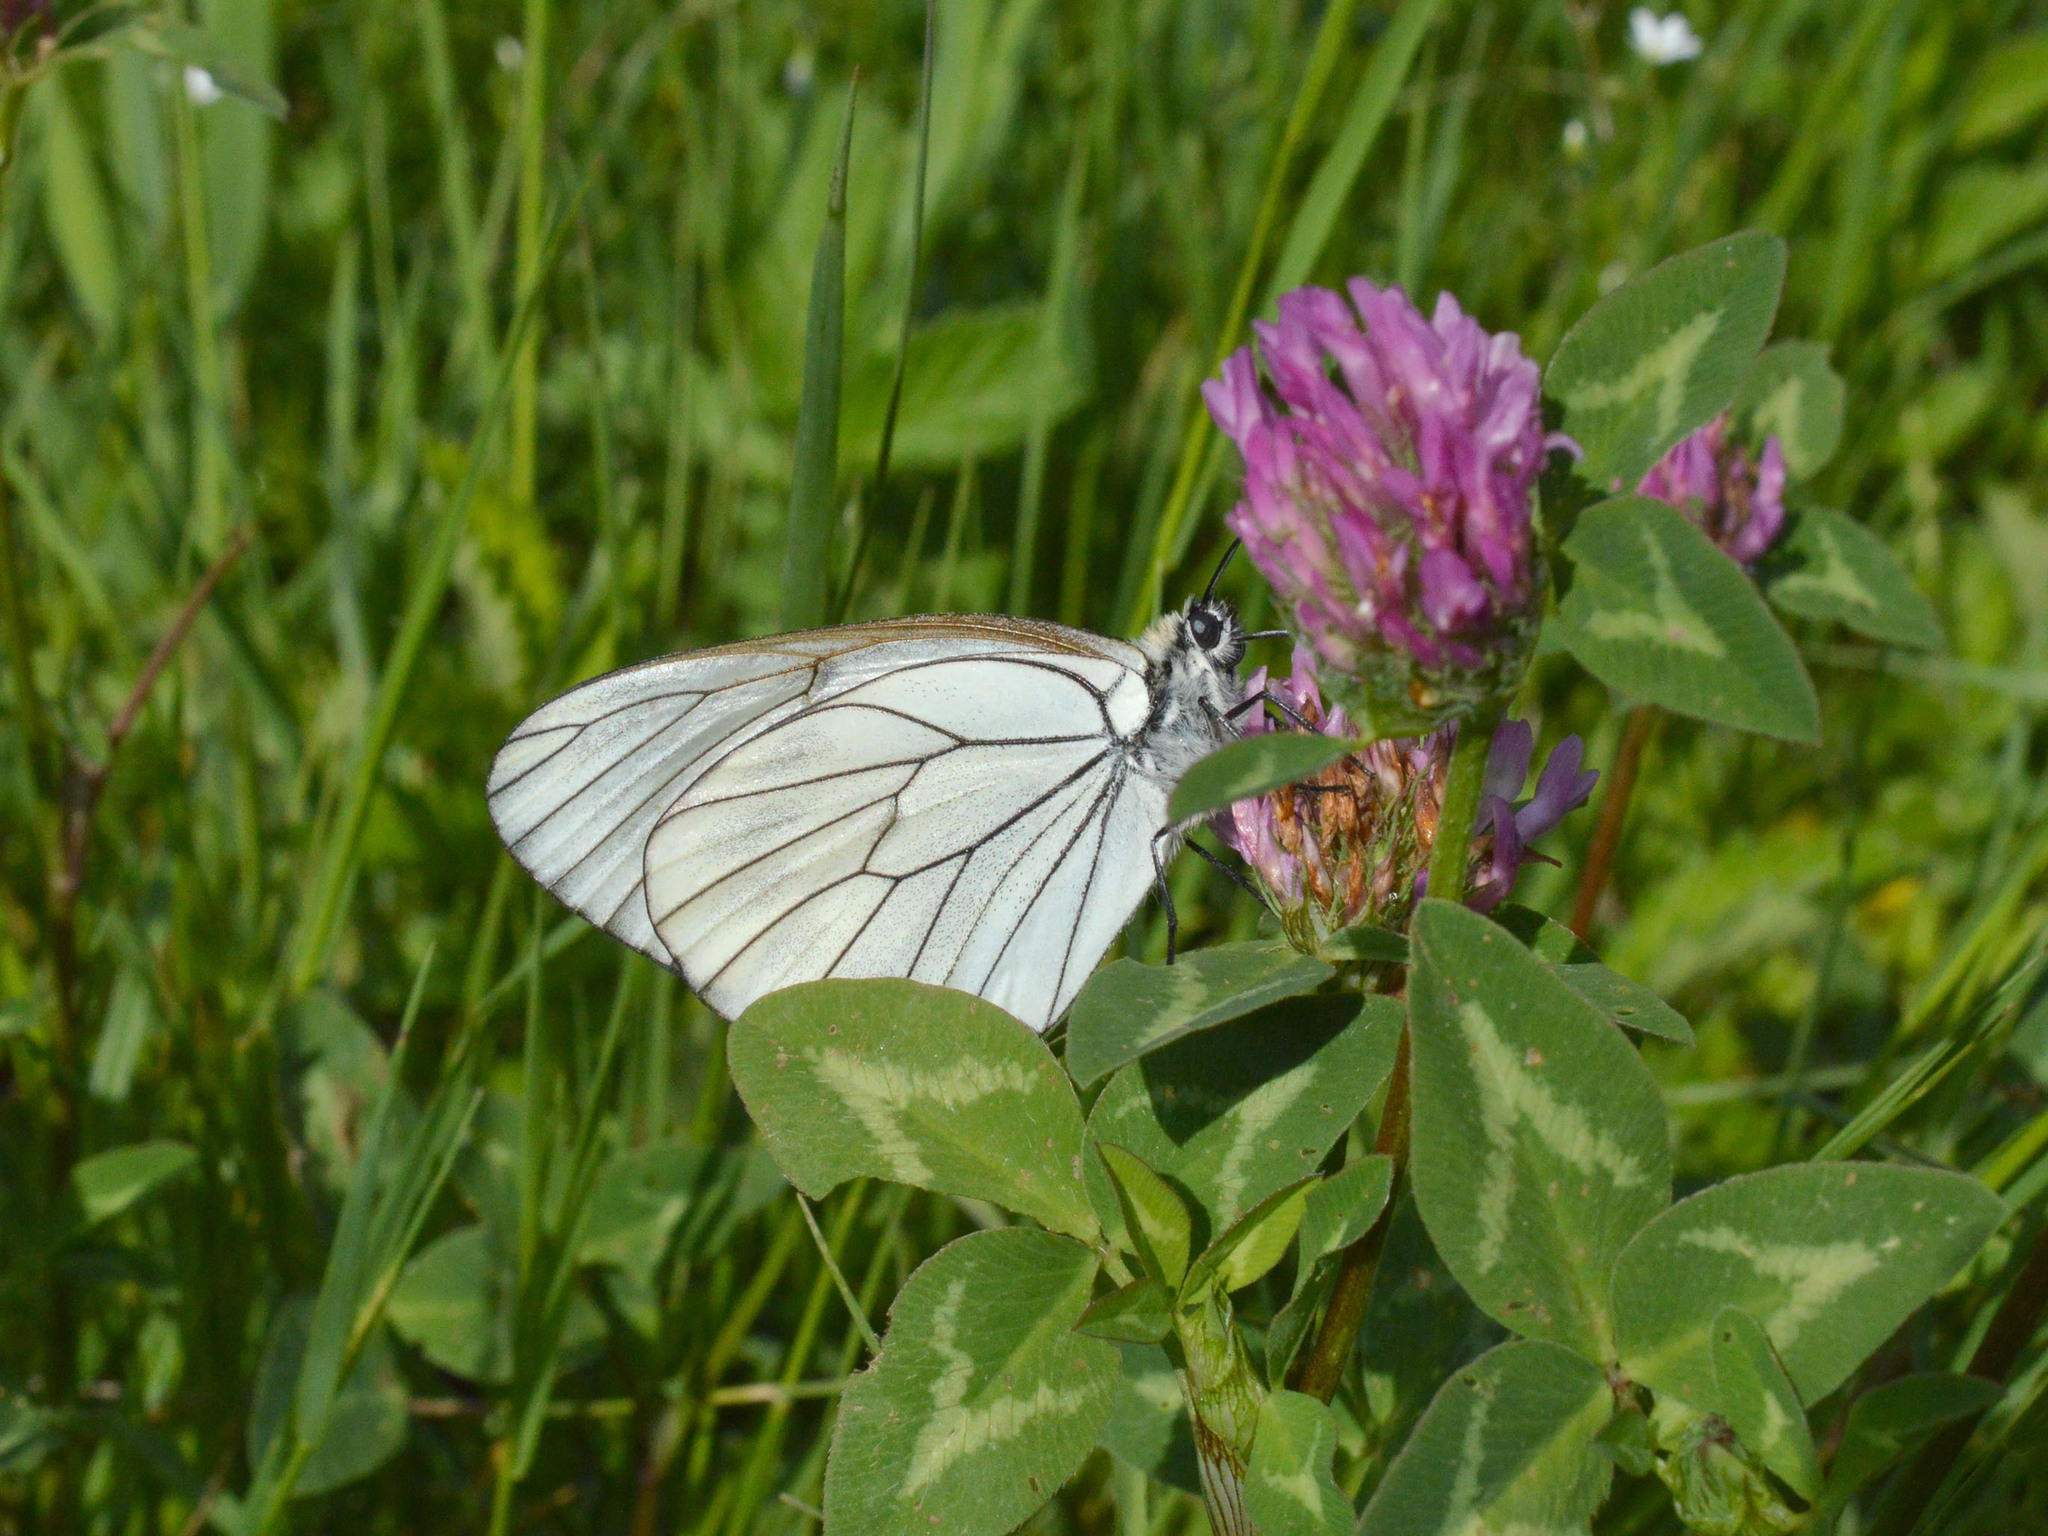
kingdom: Animalia
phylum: Arthropoda
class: Insecta
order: Lepidoptera
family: Pieridae
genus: Aporia
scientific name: Aporia crataegi
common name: Black-veined white
